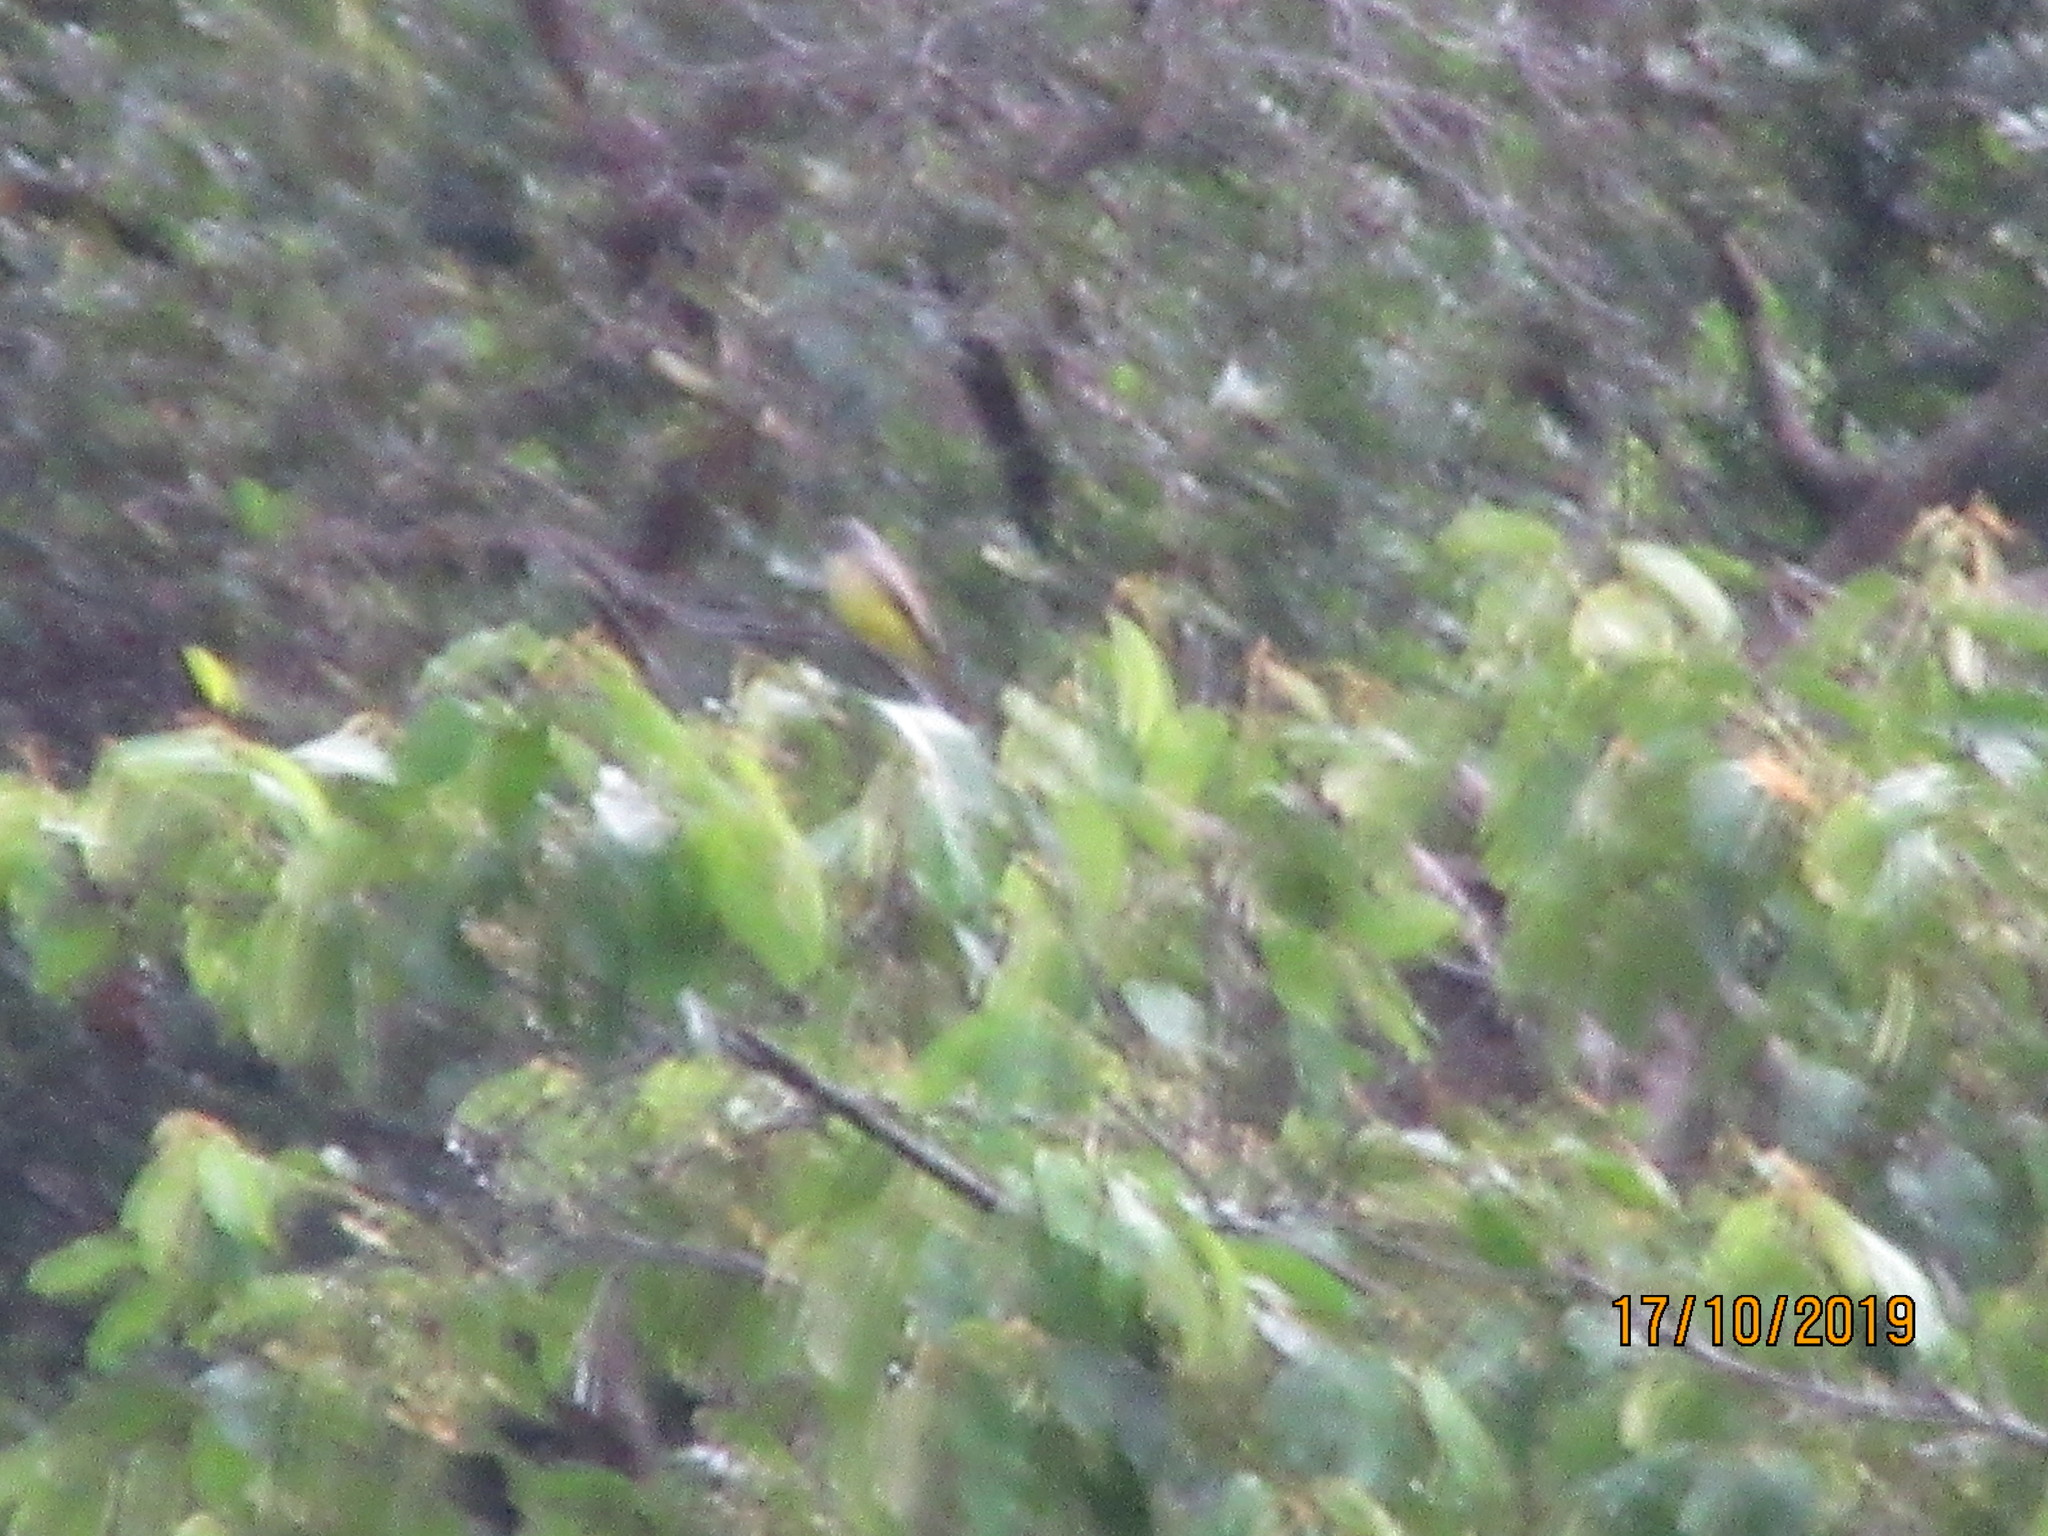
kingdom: Animalia
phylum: Chordata
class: Aves
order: Passeriformes
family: Tyrannidae
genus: Tyrannus
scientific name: Tyrannus melancholicus
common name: Tropical kingbird
